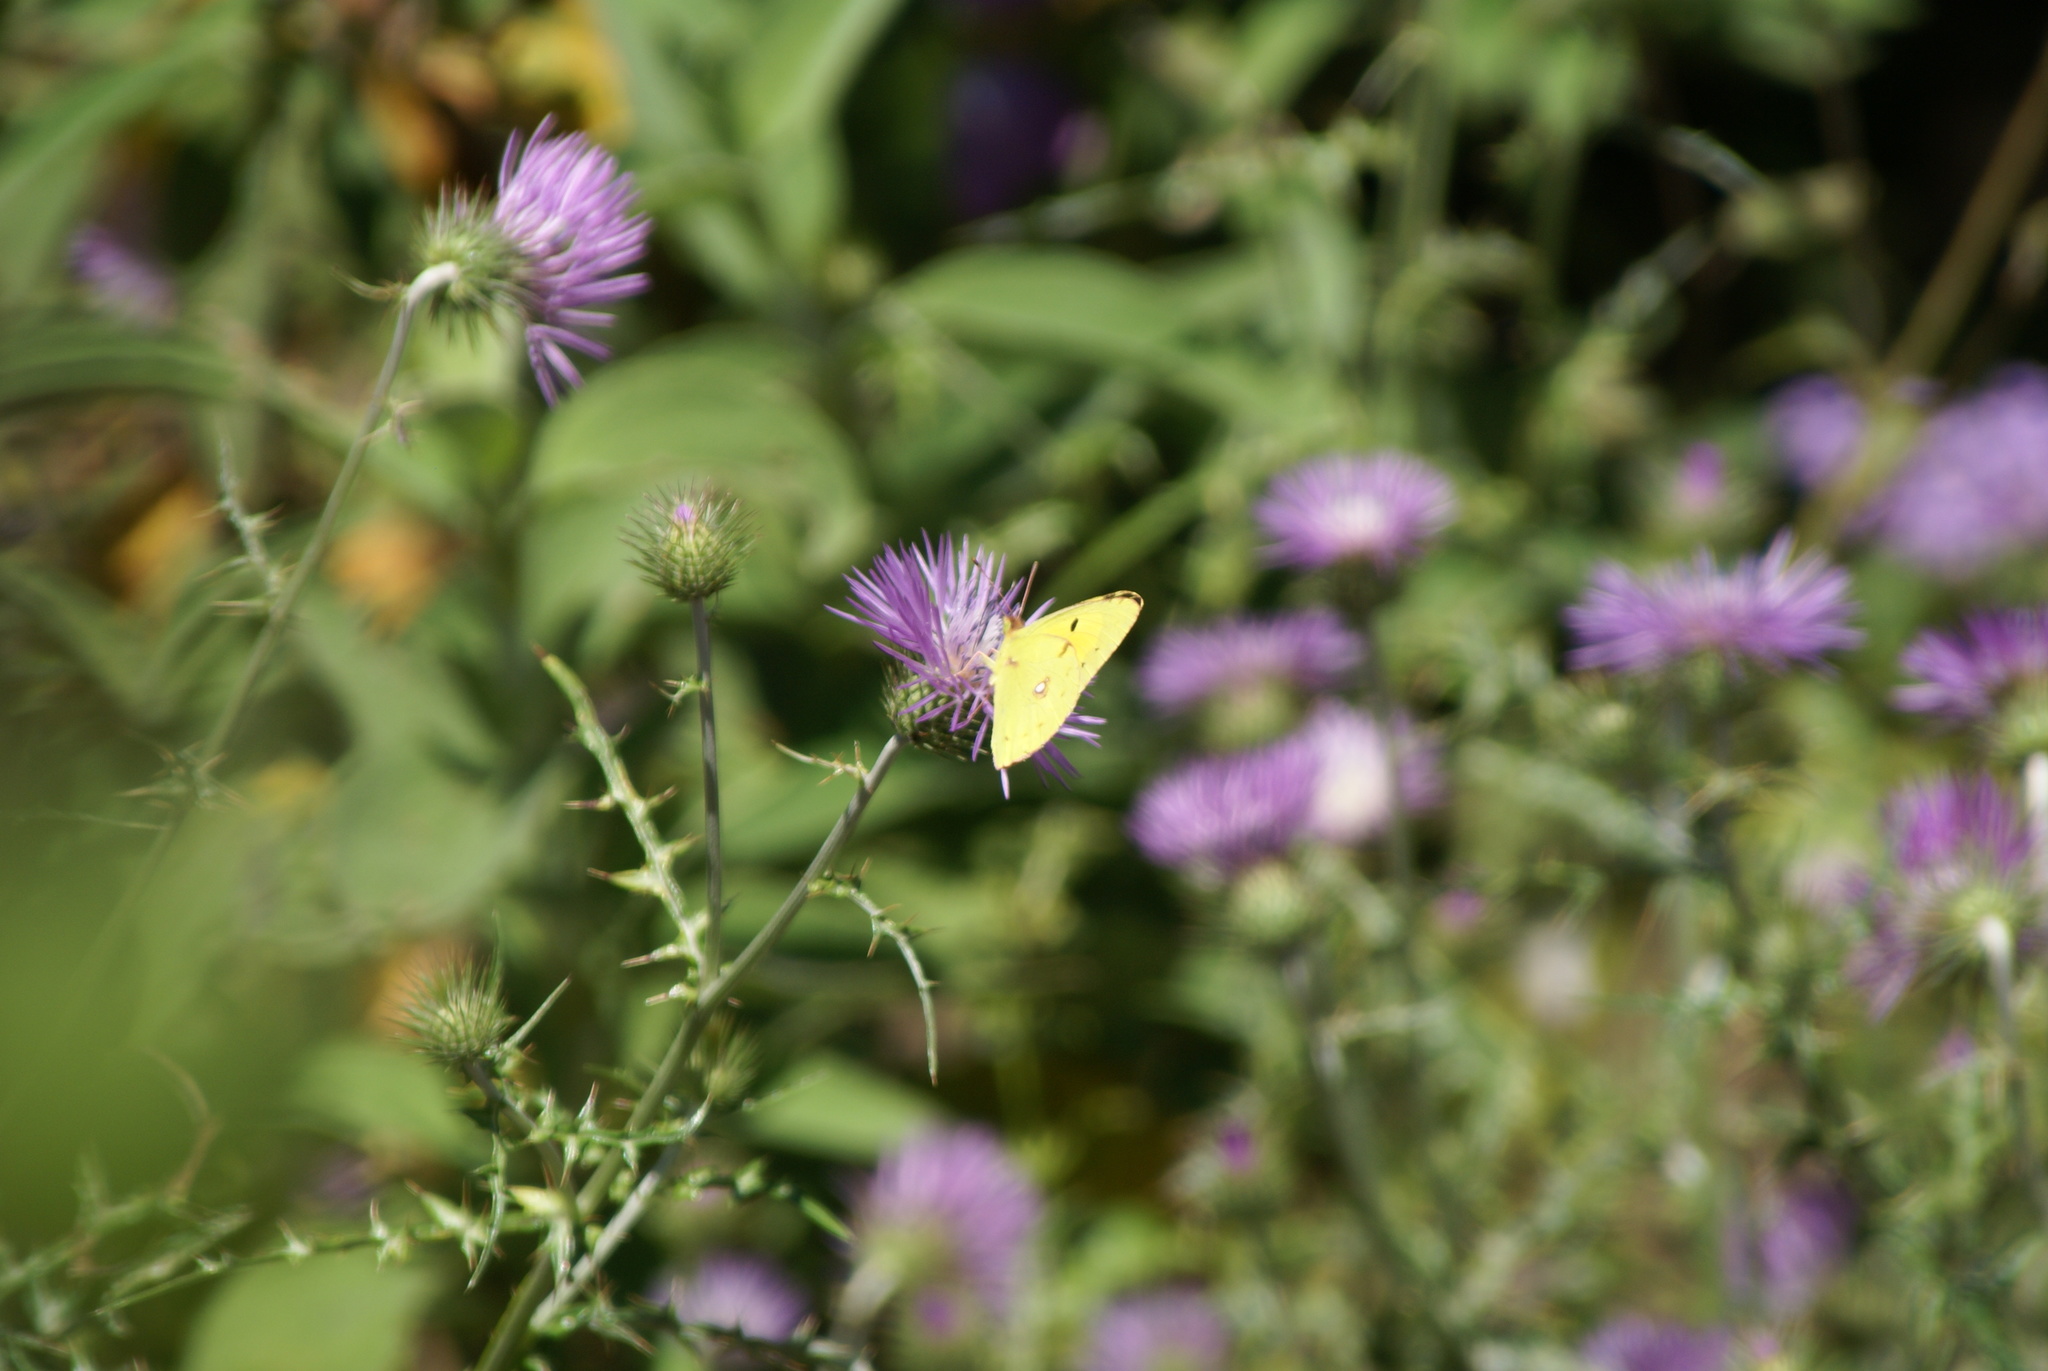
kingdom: Animalia
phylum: Arthropoda
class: Insecta
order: Lepidoptera
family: Pieridae
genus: Colias
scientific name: Colias croceus
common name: Clouded yellow
